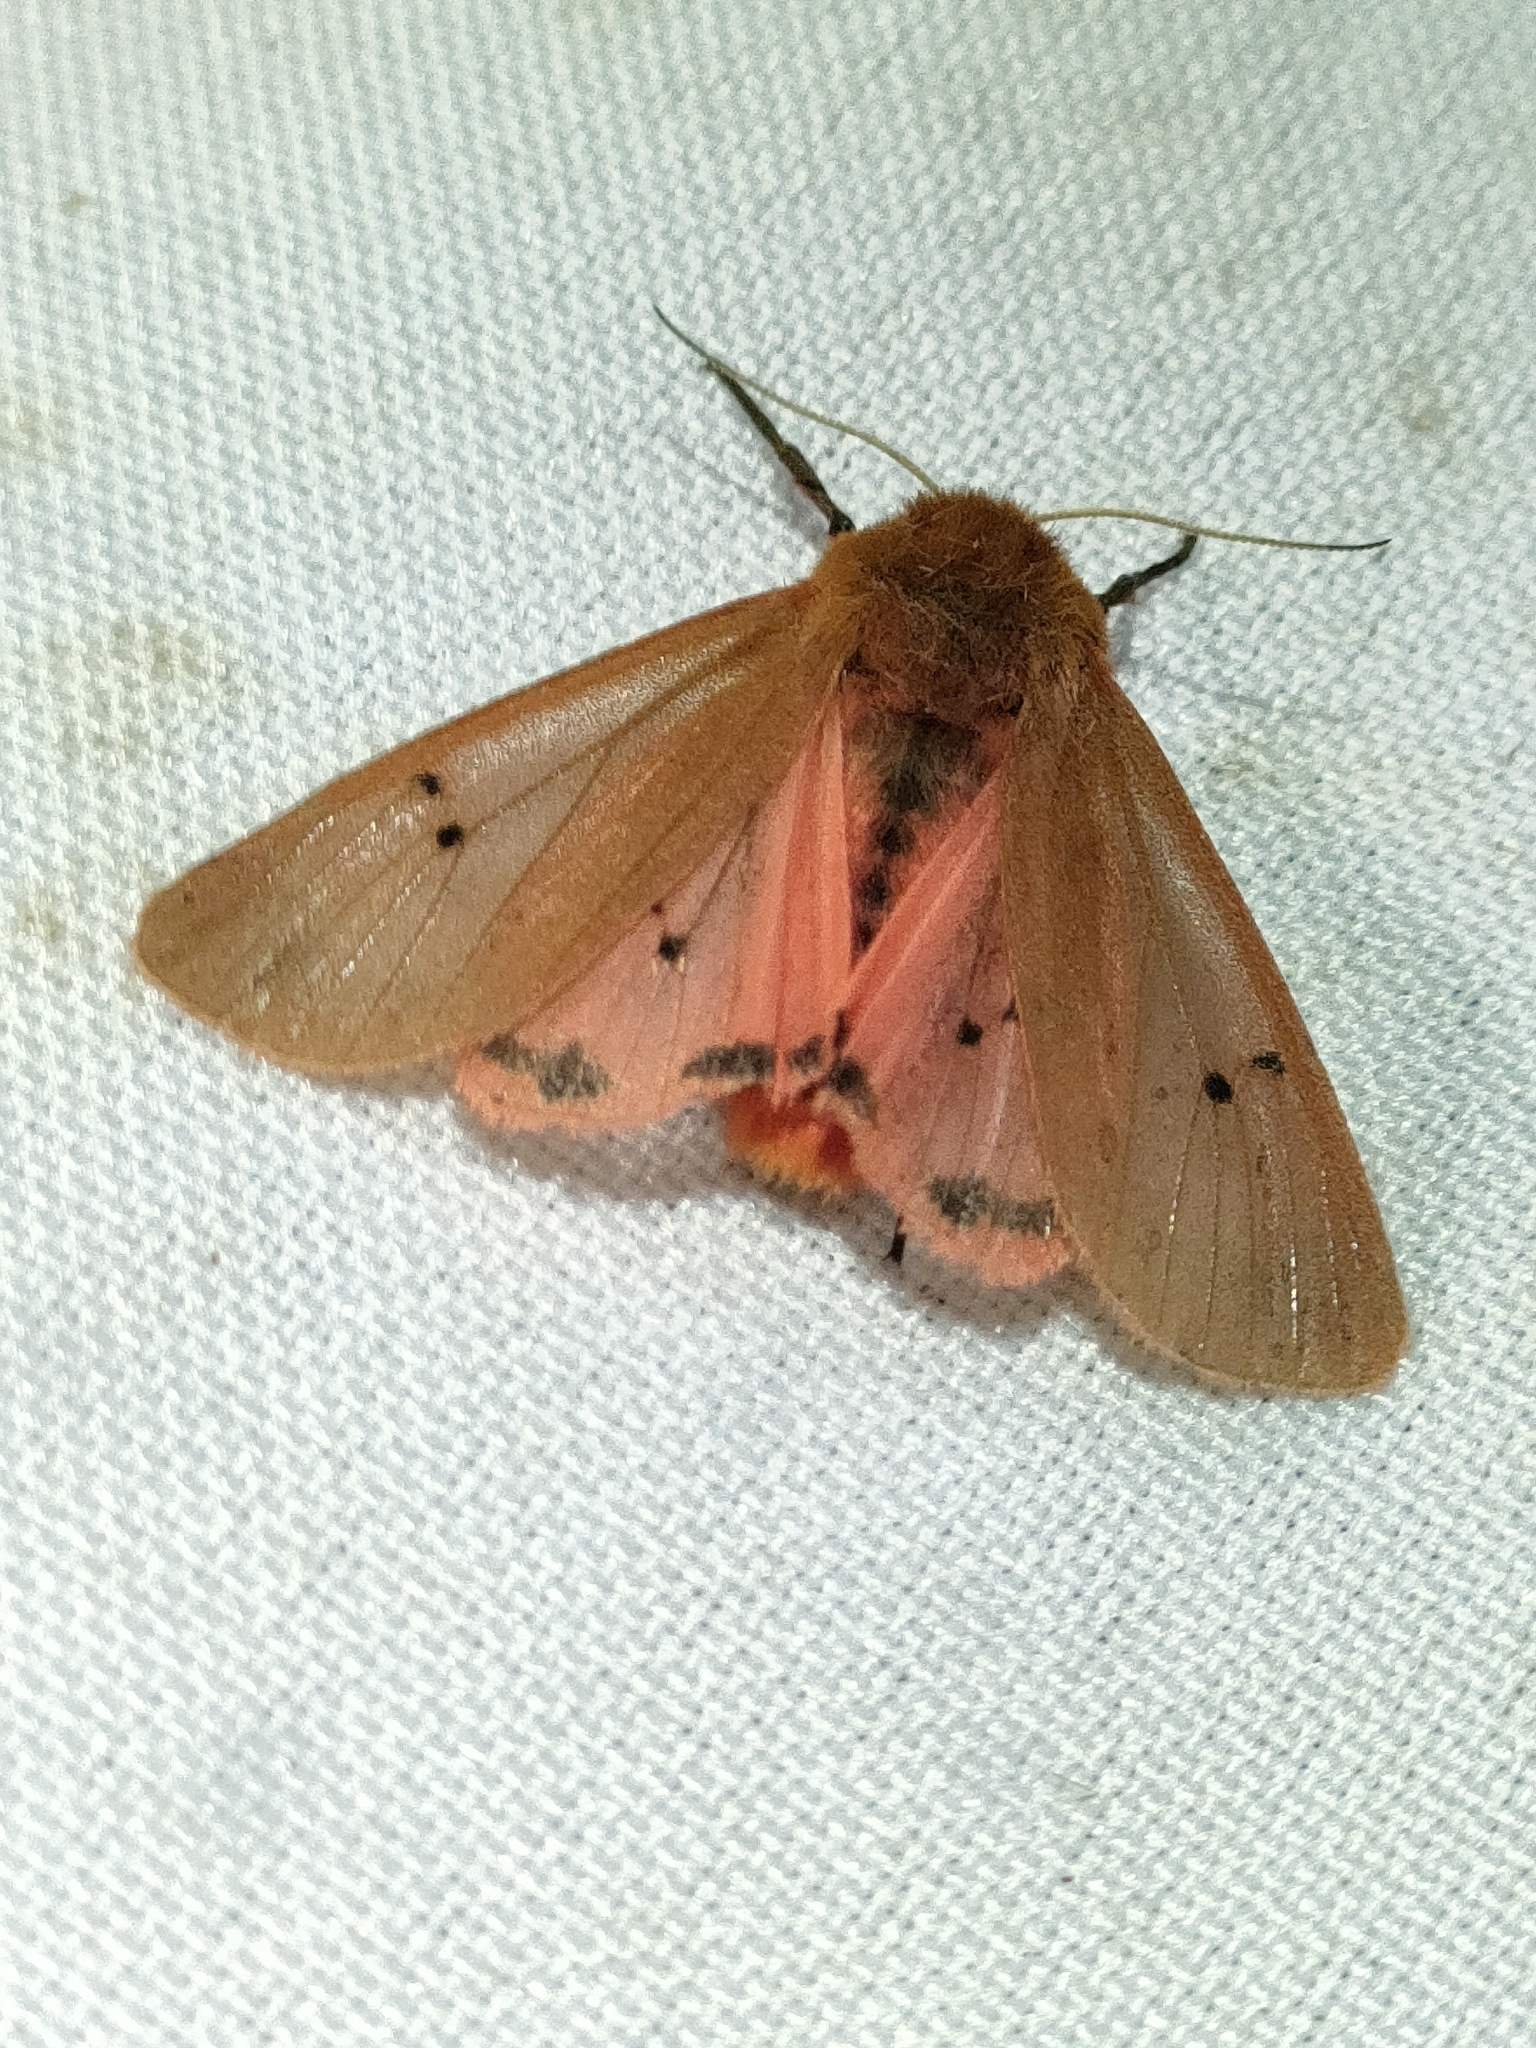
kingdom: Animalia
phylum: Arthropoda
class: Insecta
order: Lepidoptera
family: Erebidae
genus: Phragmatobia
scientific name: Phragmatobia fuliginosa
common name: Ruby tiger
